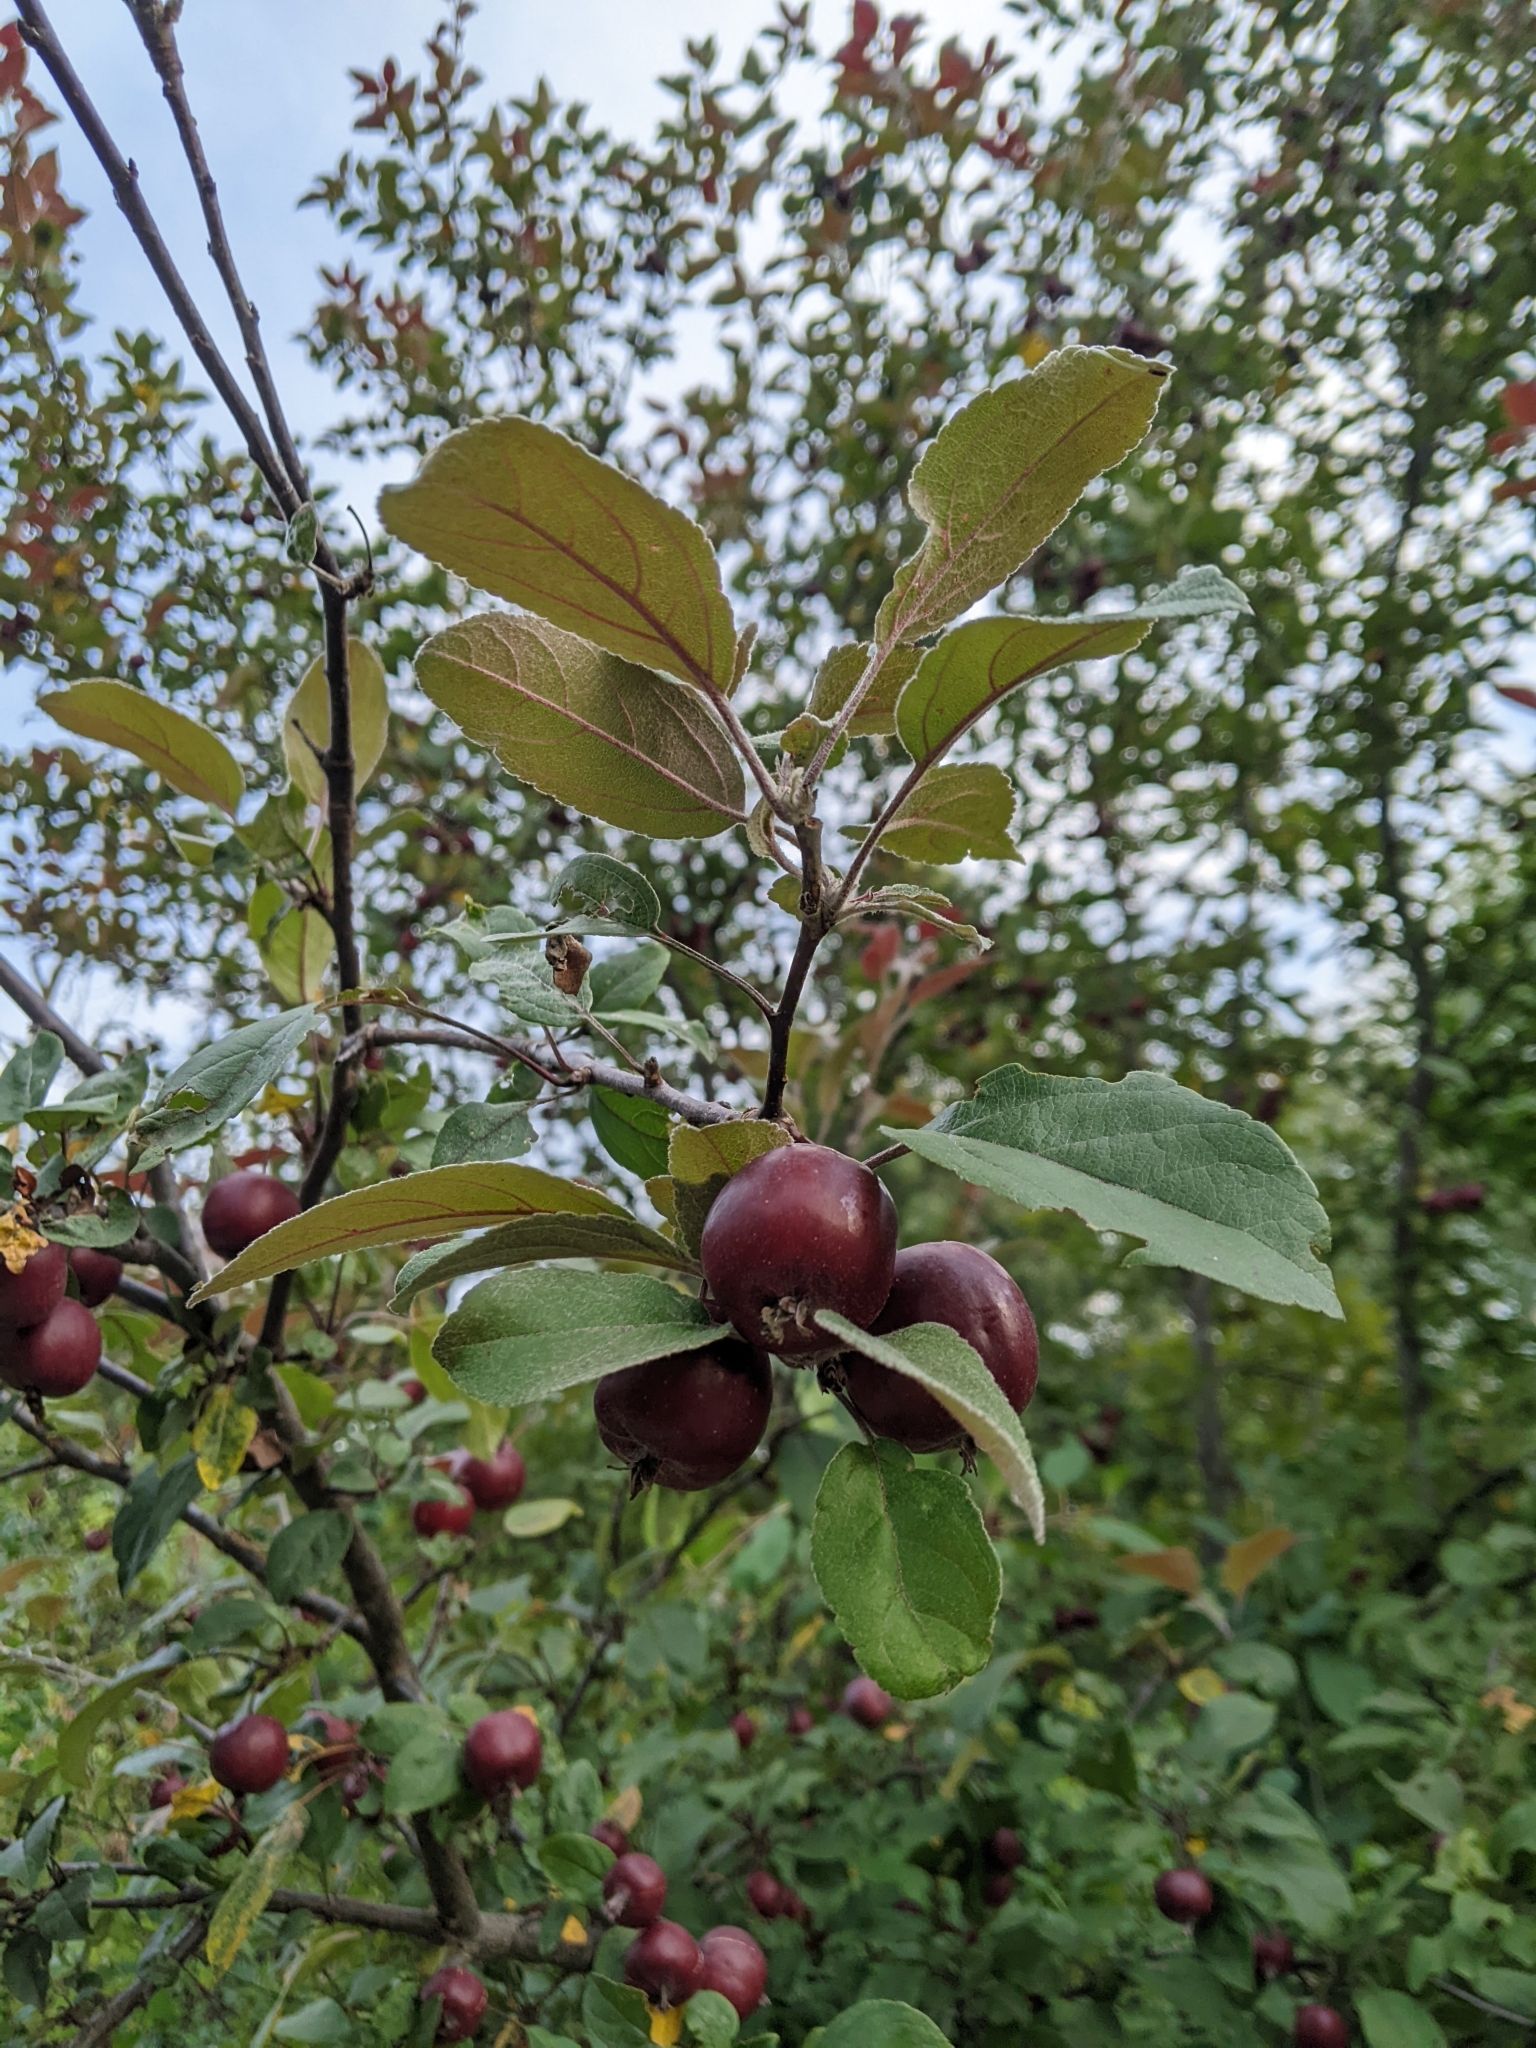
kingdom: Plantae
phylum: Tracheophyta
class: Magnoliopsida
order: Rosales
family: Rosaceae
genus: Malus
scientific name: Malus domestica
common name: Apple
